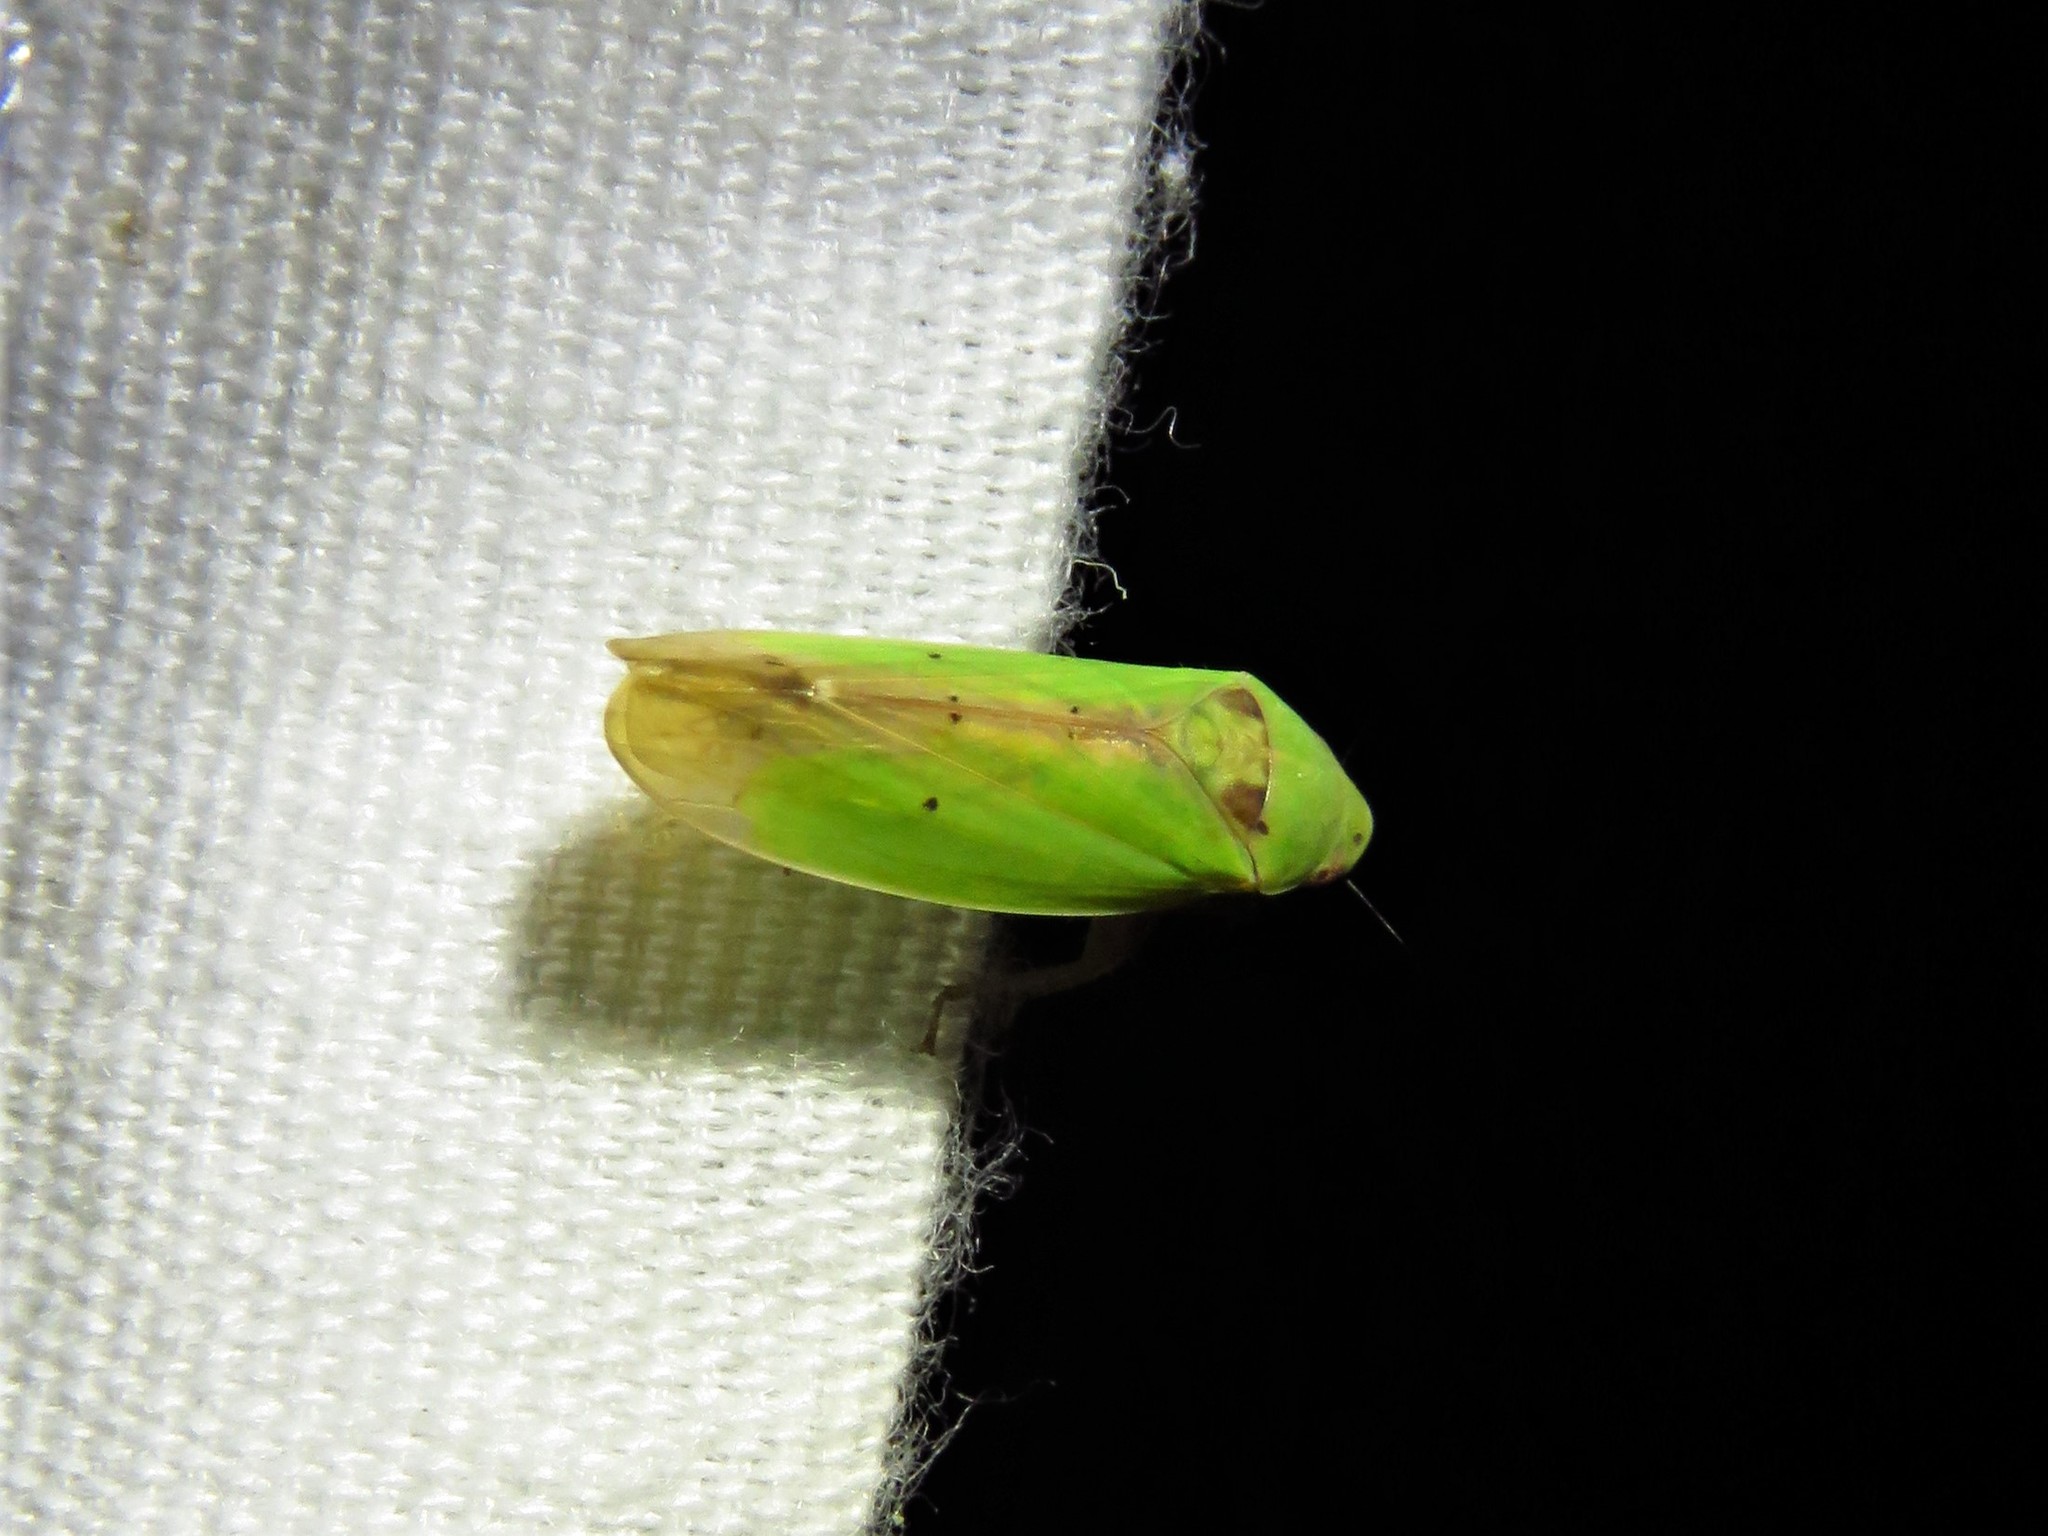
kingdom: Animalia
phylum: Arthropoda
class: Insecta
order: Hemiptera
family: Cicadellidae
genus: Ponana
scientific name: Ponana
